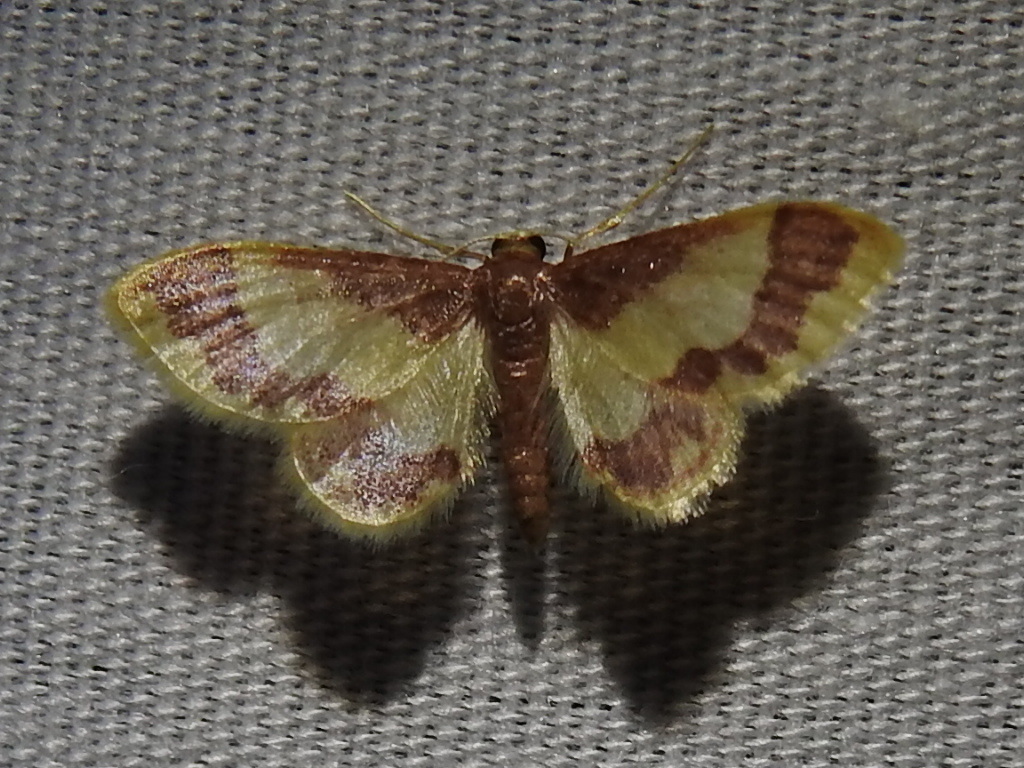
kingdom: Animalia
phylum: Arthropoda
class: Insecta
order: Lepidoptera
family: Geometridae
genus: Idaea
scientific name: Idaea basinta
